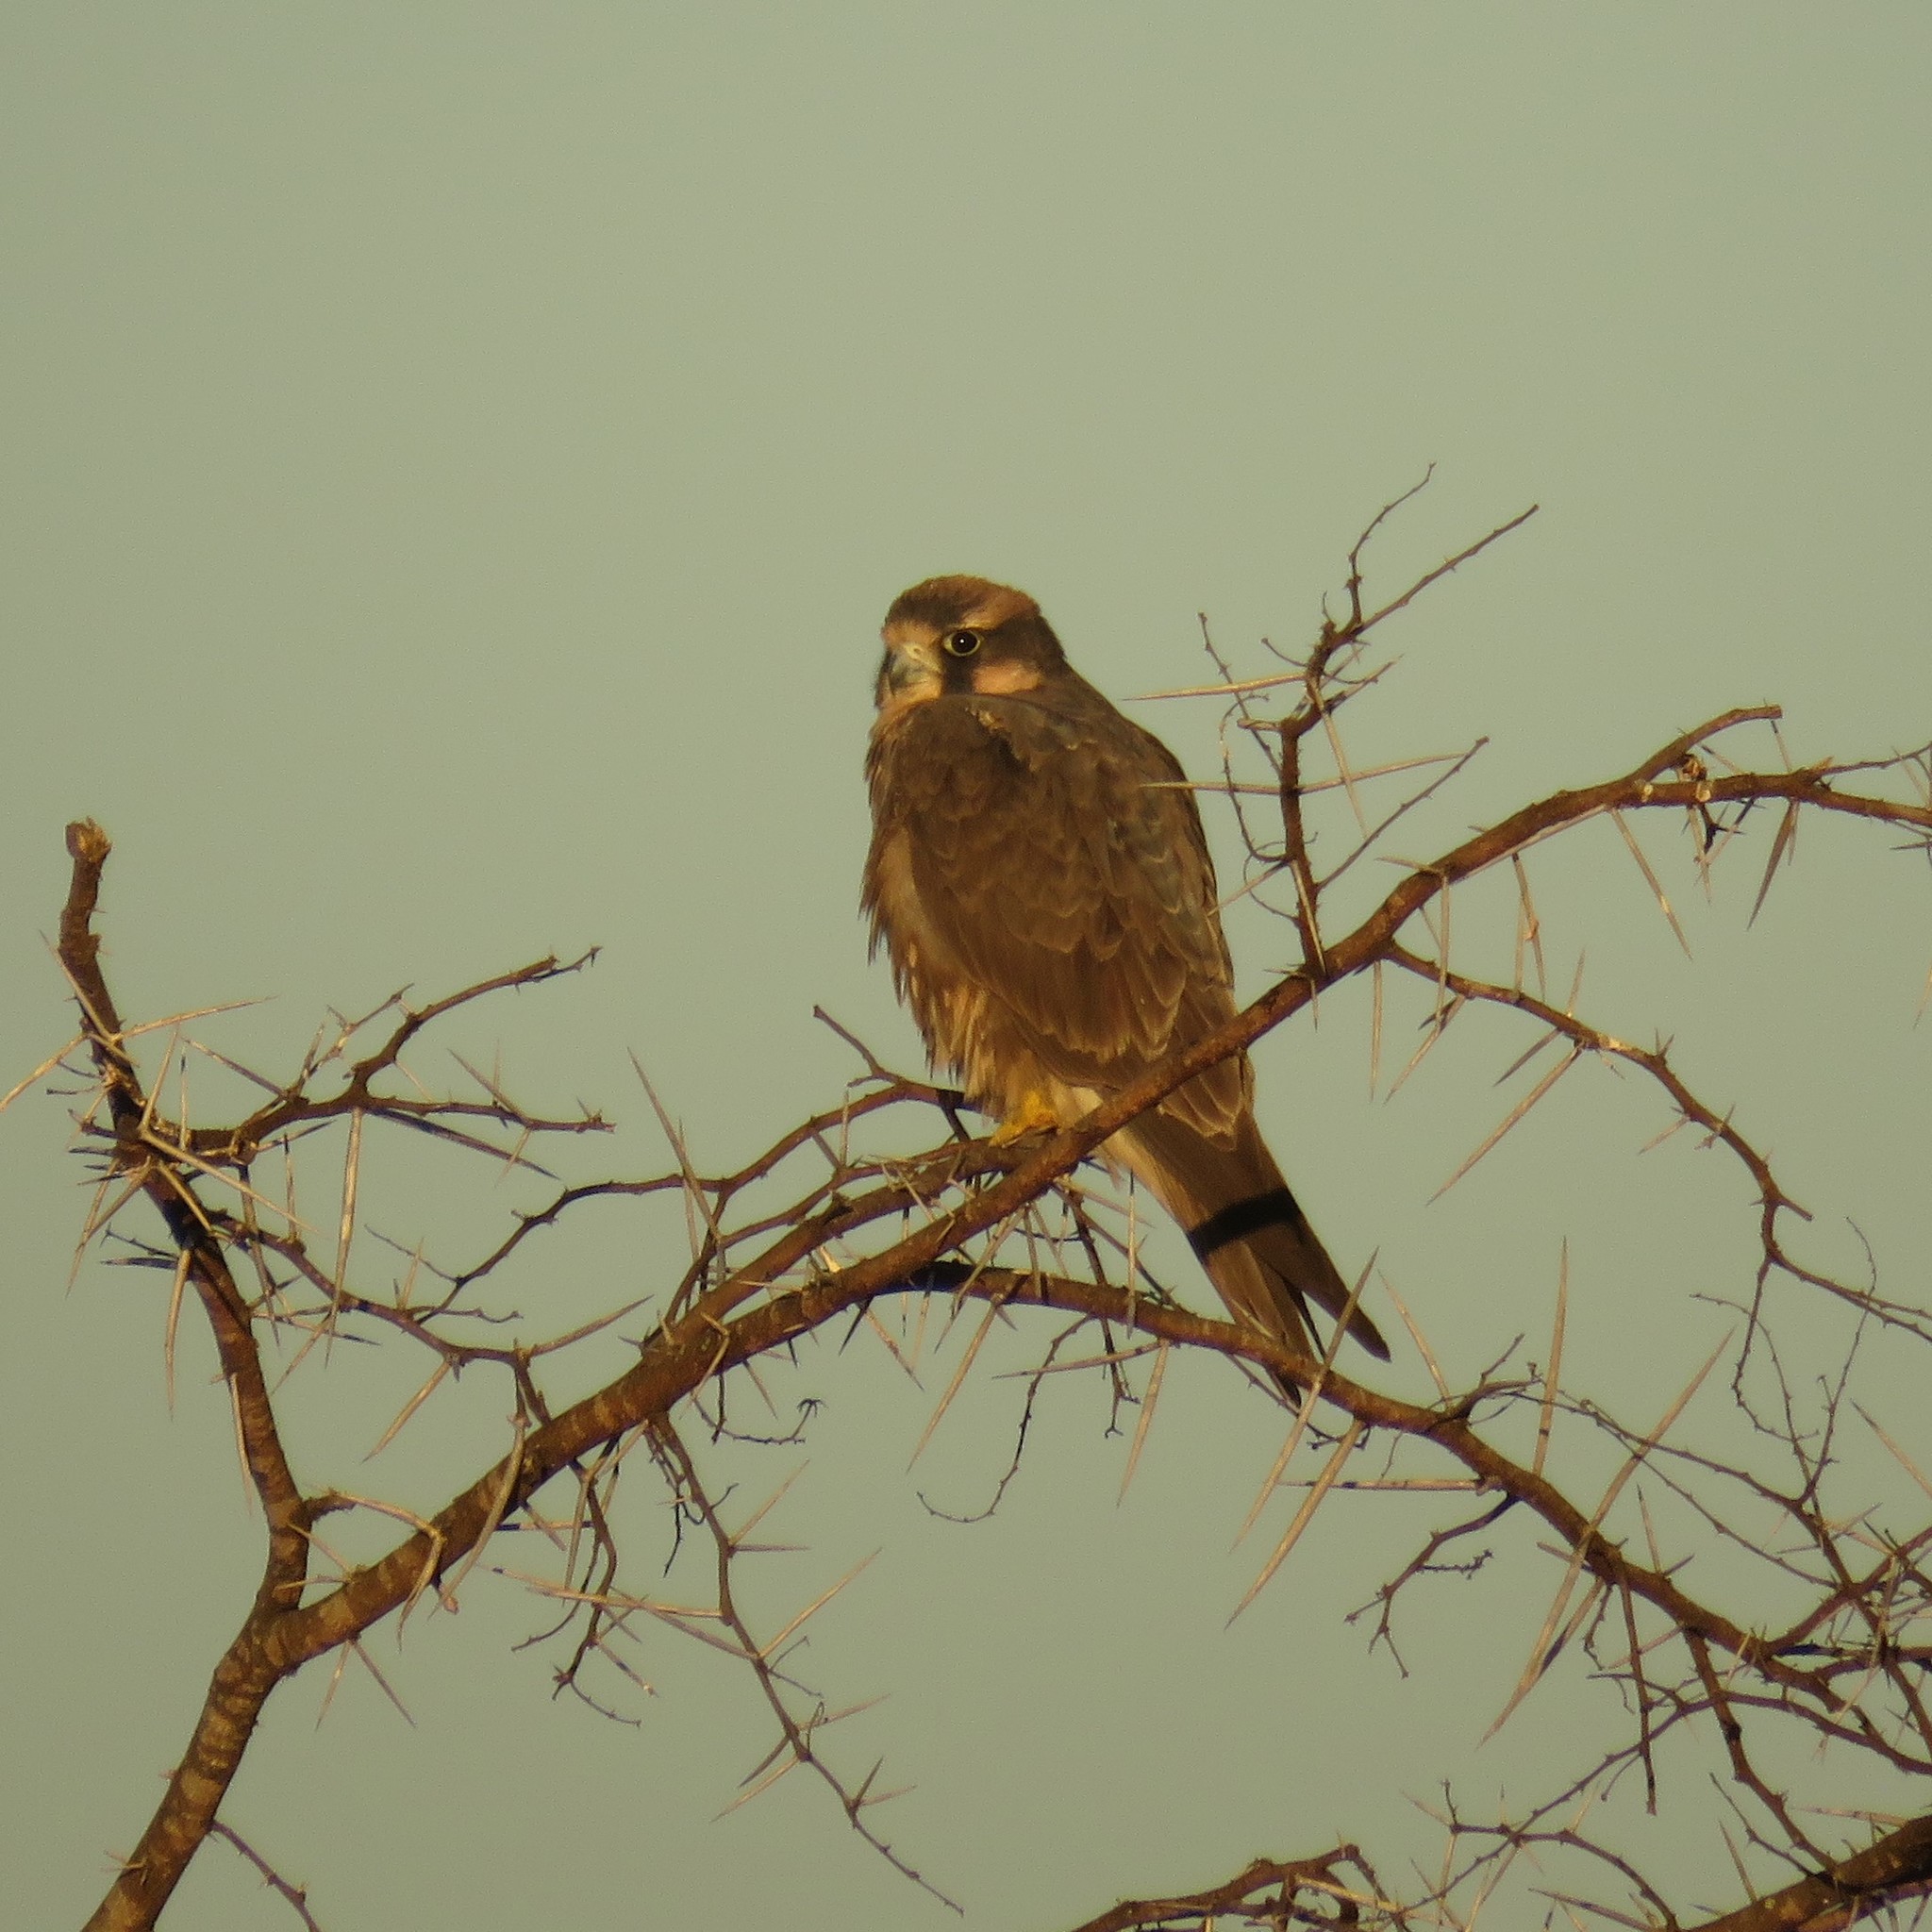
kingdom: Animalia
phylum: Chordata
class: Aves
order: Falconiformes
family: Falconidae
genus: Falco
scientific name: Falco biarmicus
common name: Lanner falcon
